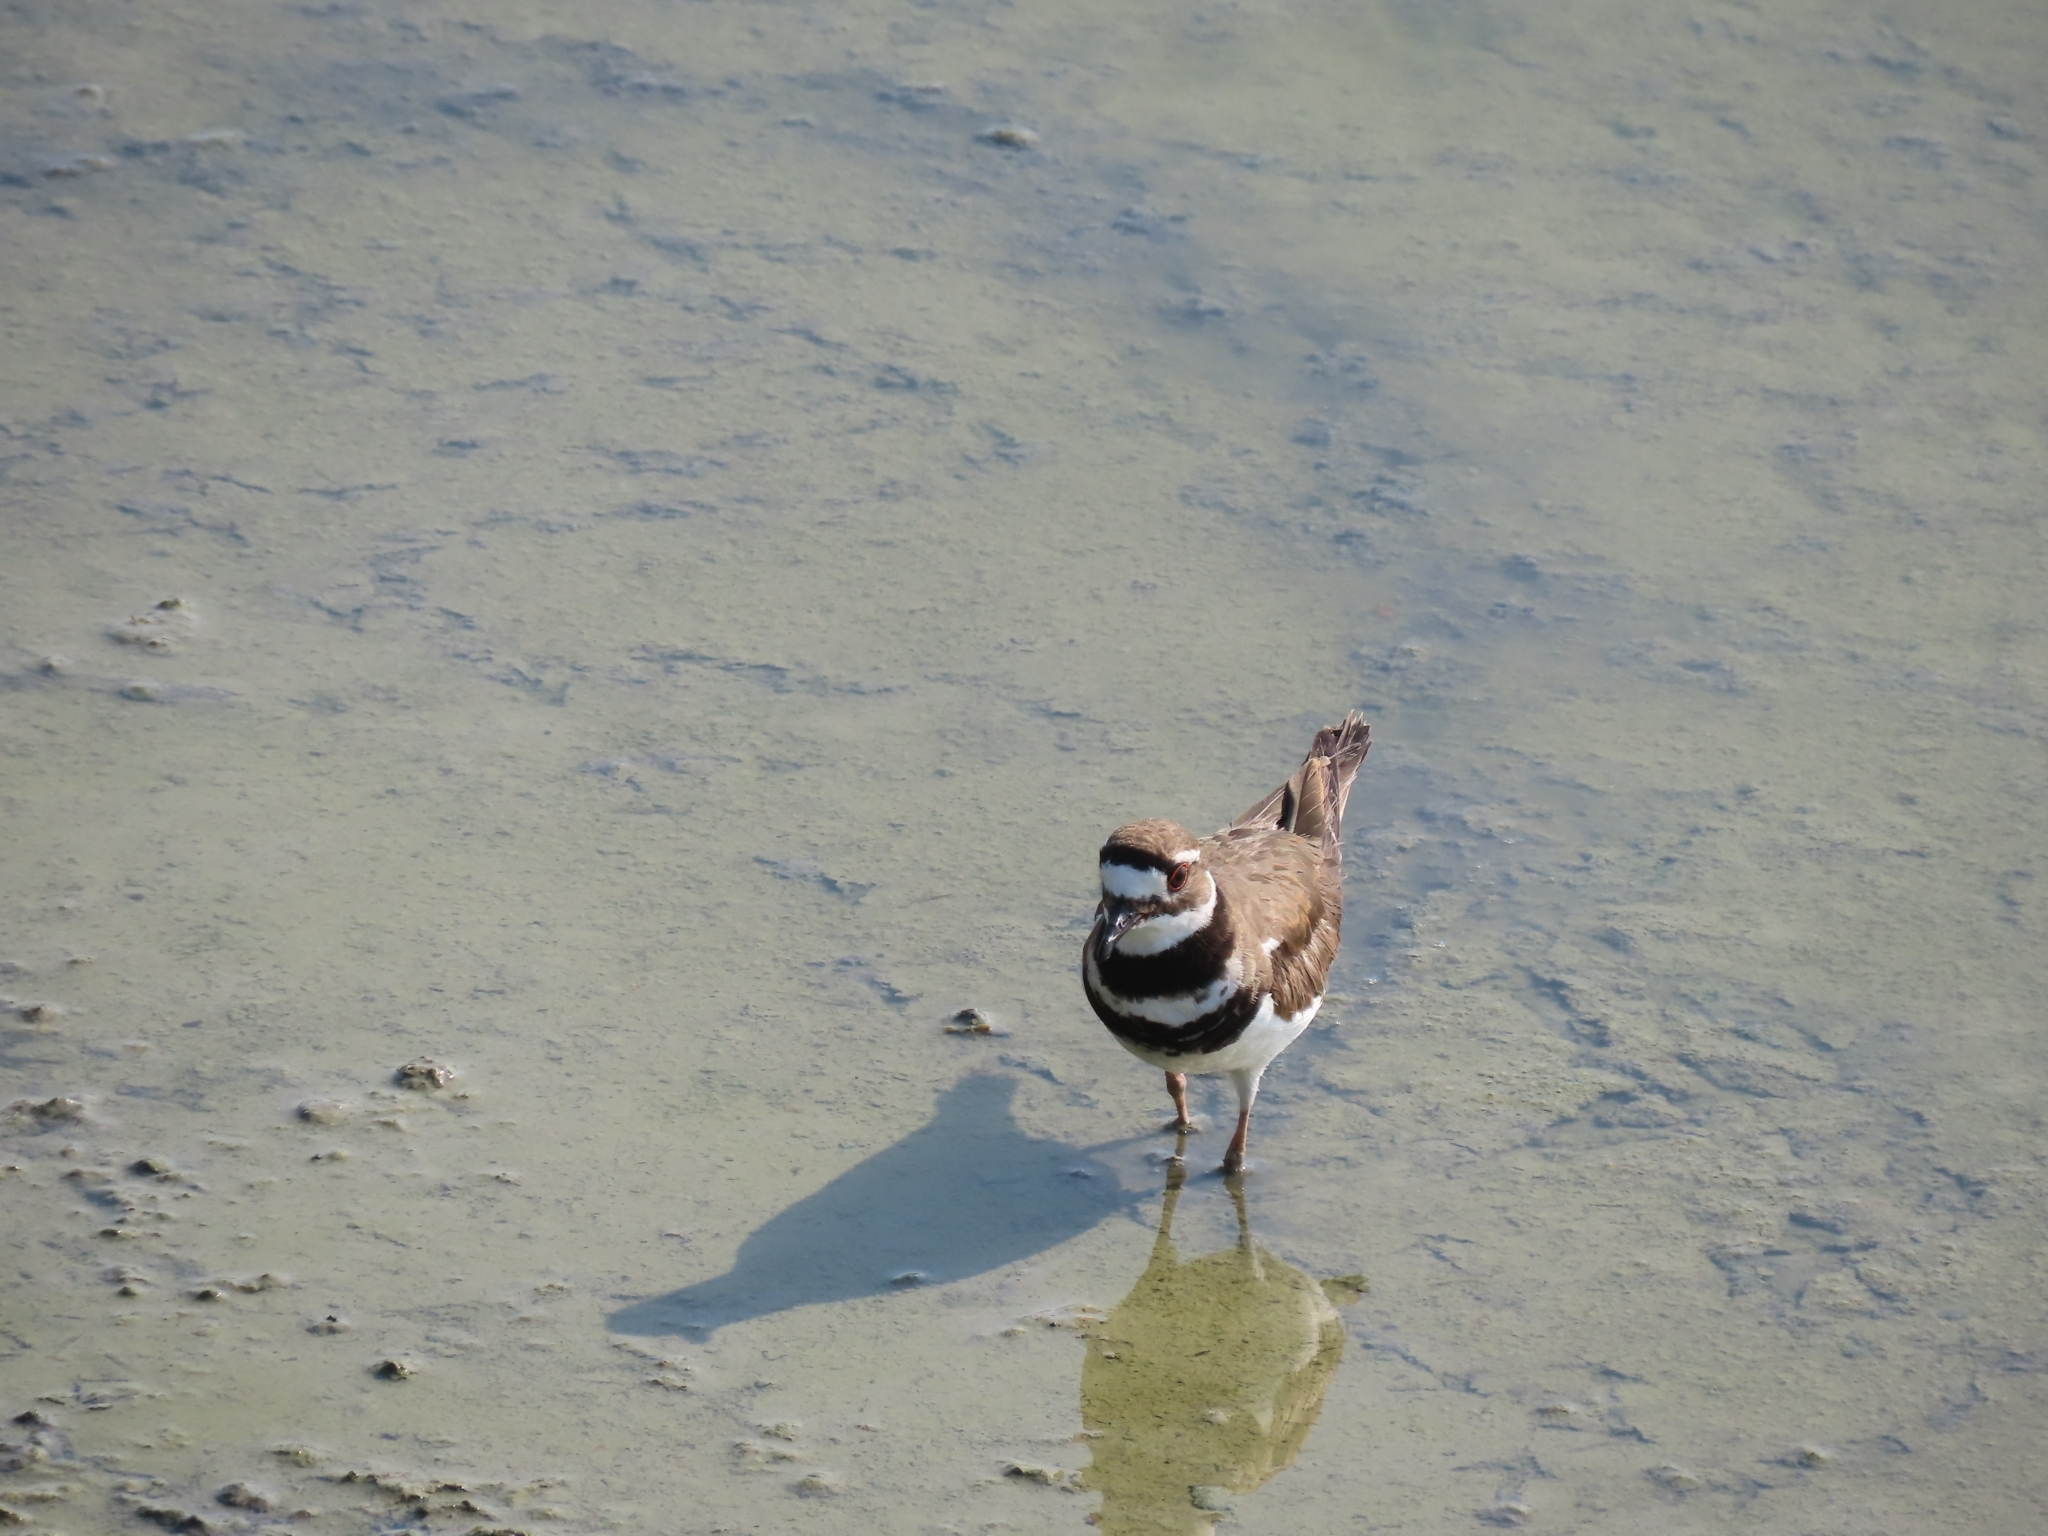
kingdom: Animalia
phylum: Chordata
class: Aves
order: Charadriiformes
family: Charadriidae
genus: Charadrius
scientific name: Charadrius vociferus
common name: Killdeer
